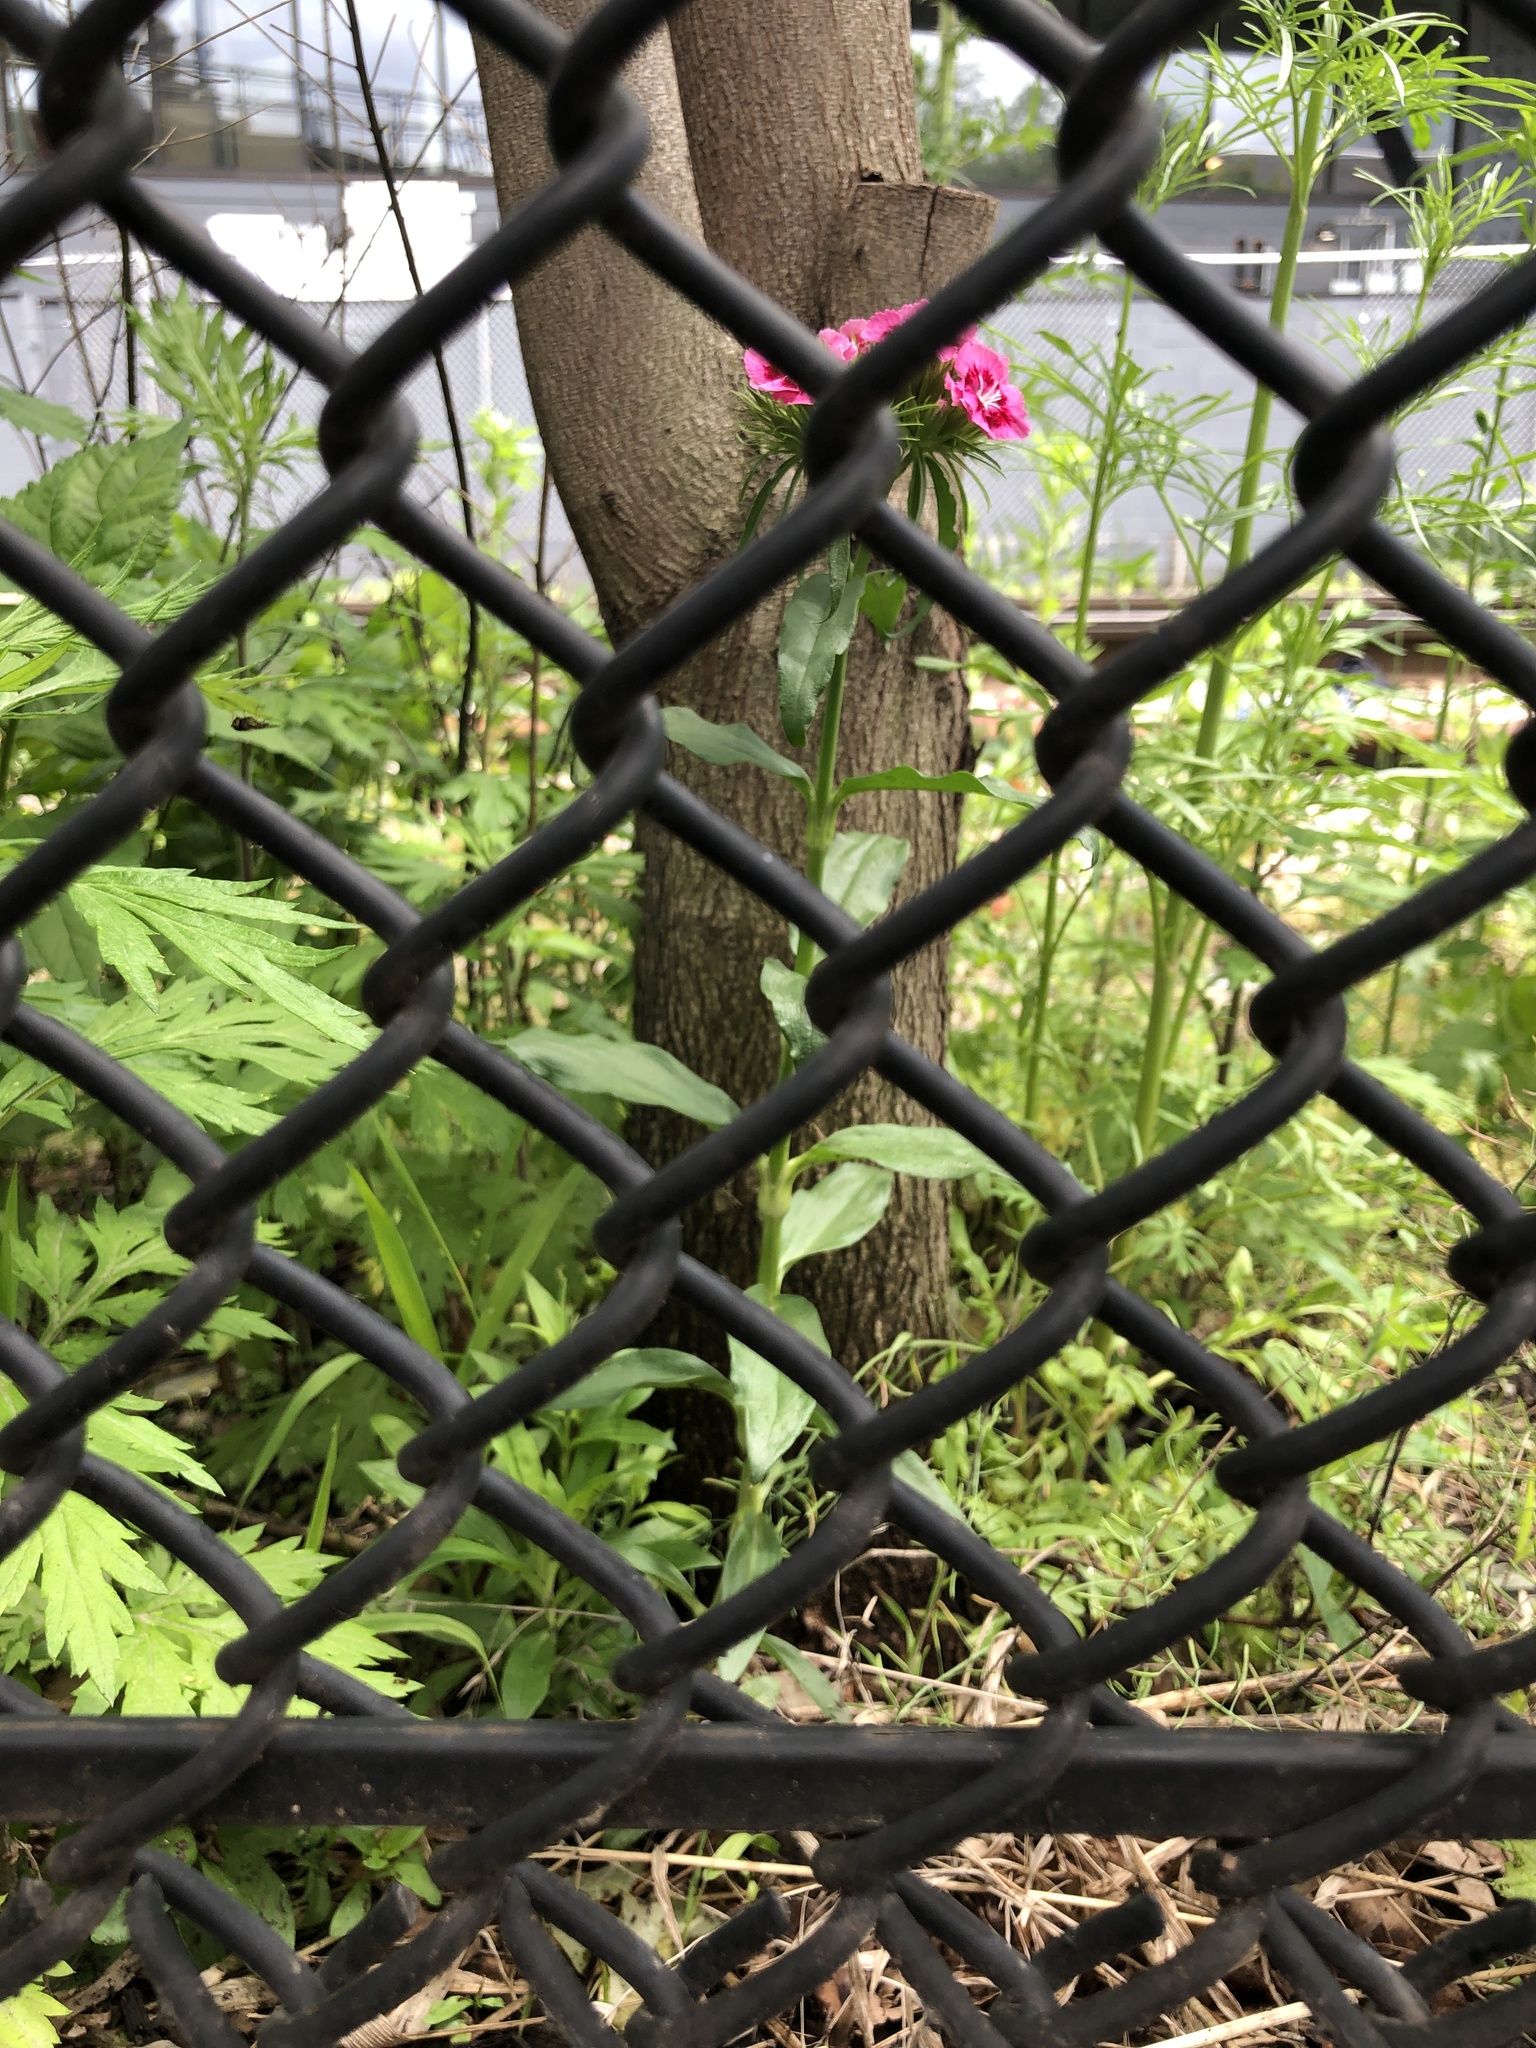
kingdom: Plantae
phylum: Tracheophyta
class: Magnoliopsida
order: Caryophyllales
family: Caryophyllaceae
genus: Dianthus
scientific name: Dianthus barbatus
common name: Sweet-william
